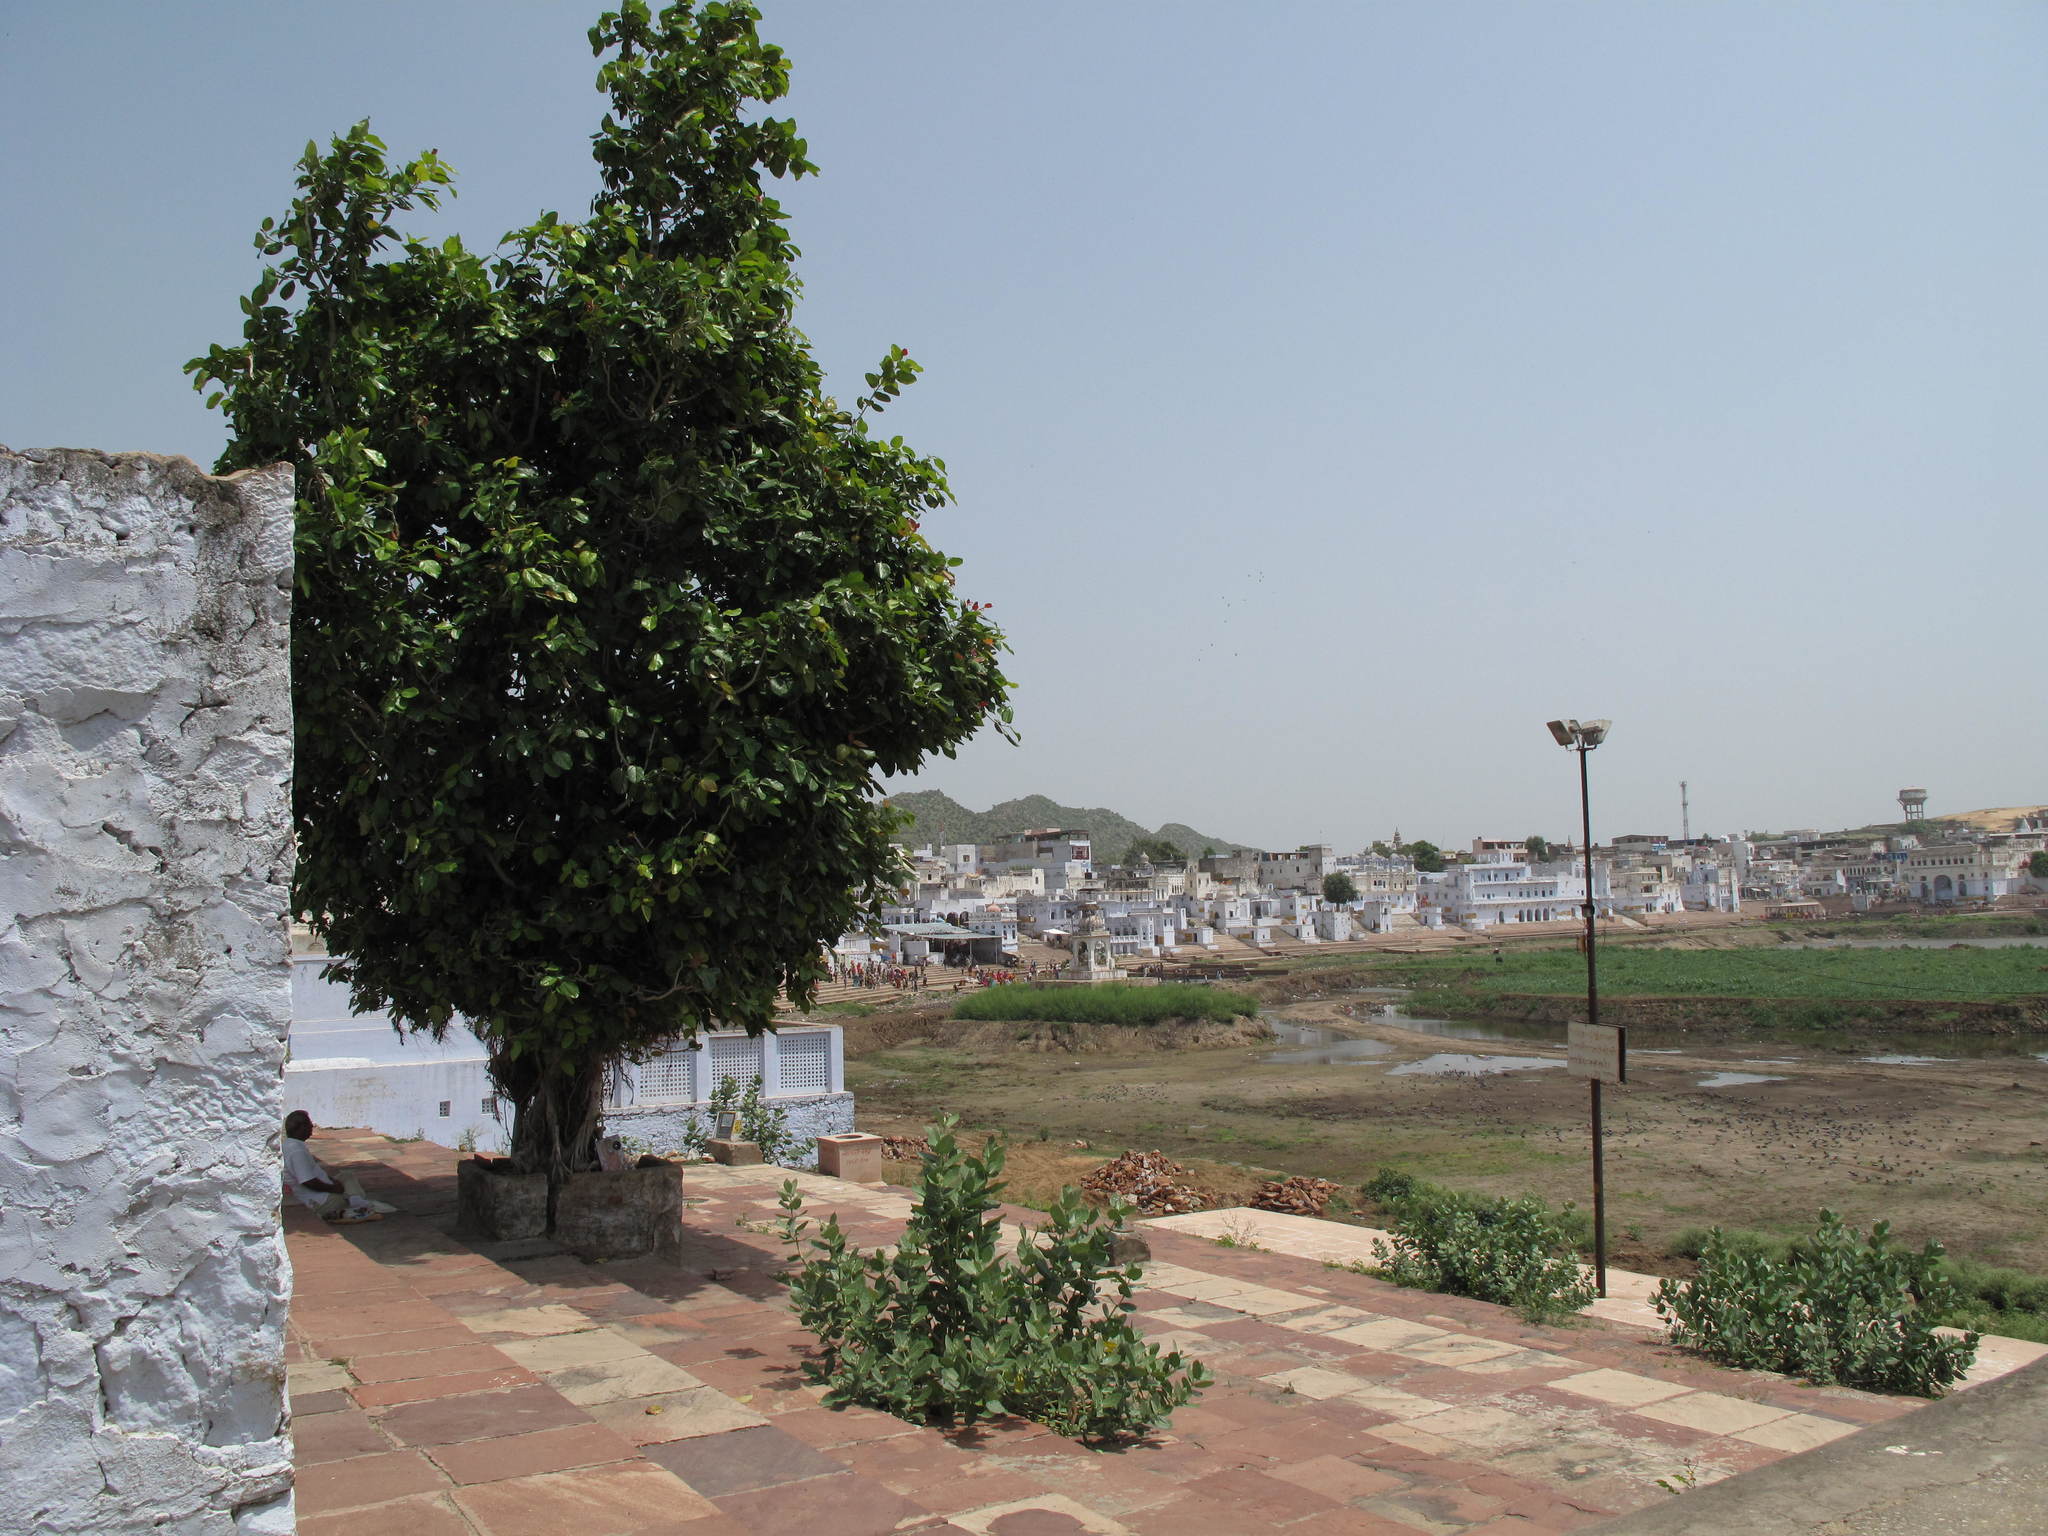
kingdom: Plantae
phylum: Tracheophyta
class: Magnoliopsida
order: Rosales
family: Moraceae
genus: Ficus
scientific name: Ficus benghalensis
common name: Indian banyan
